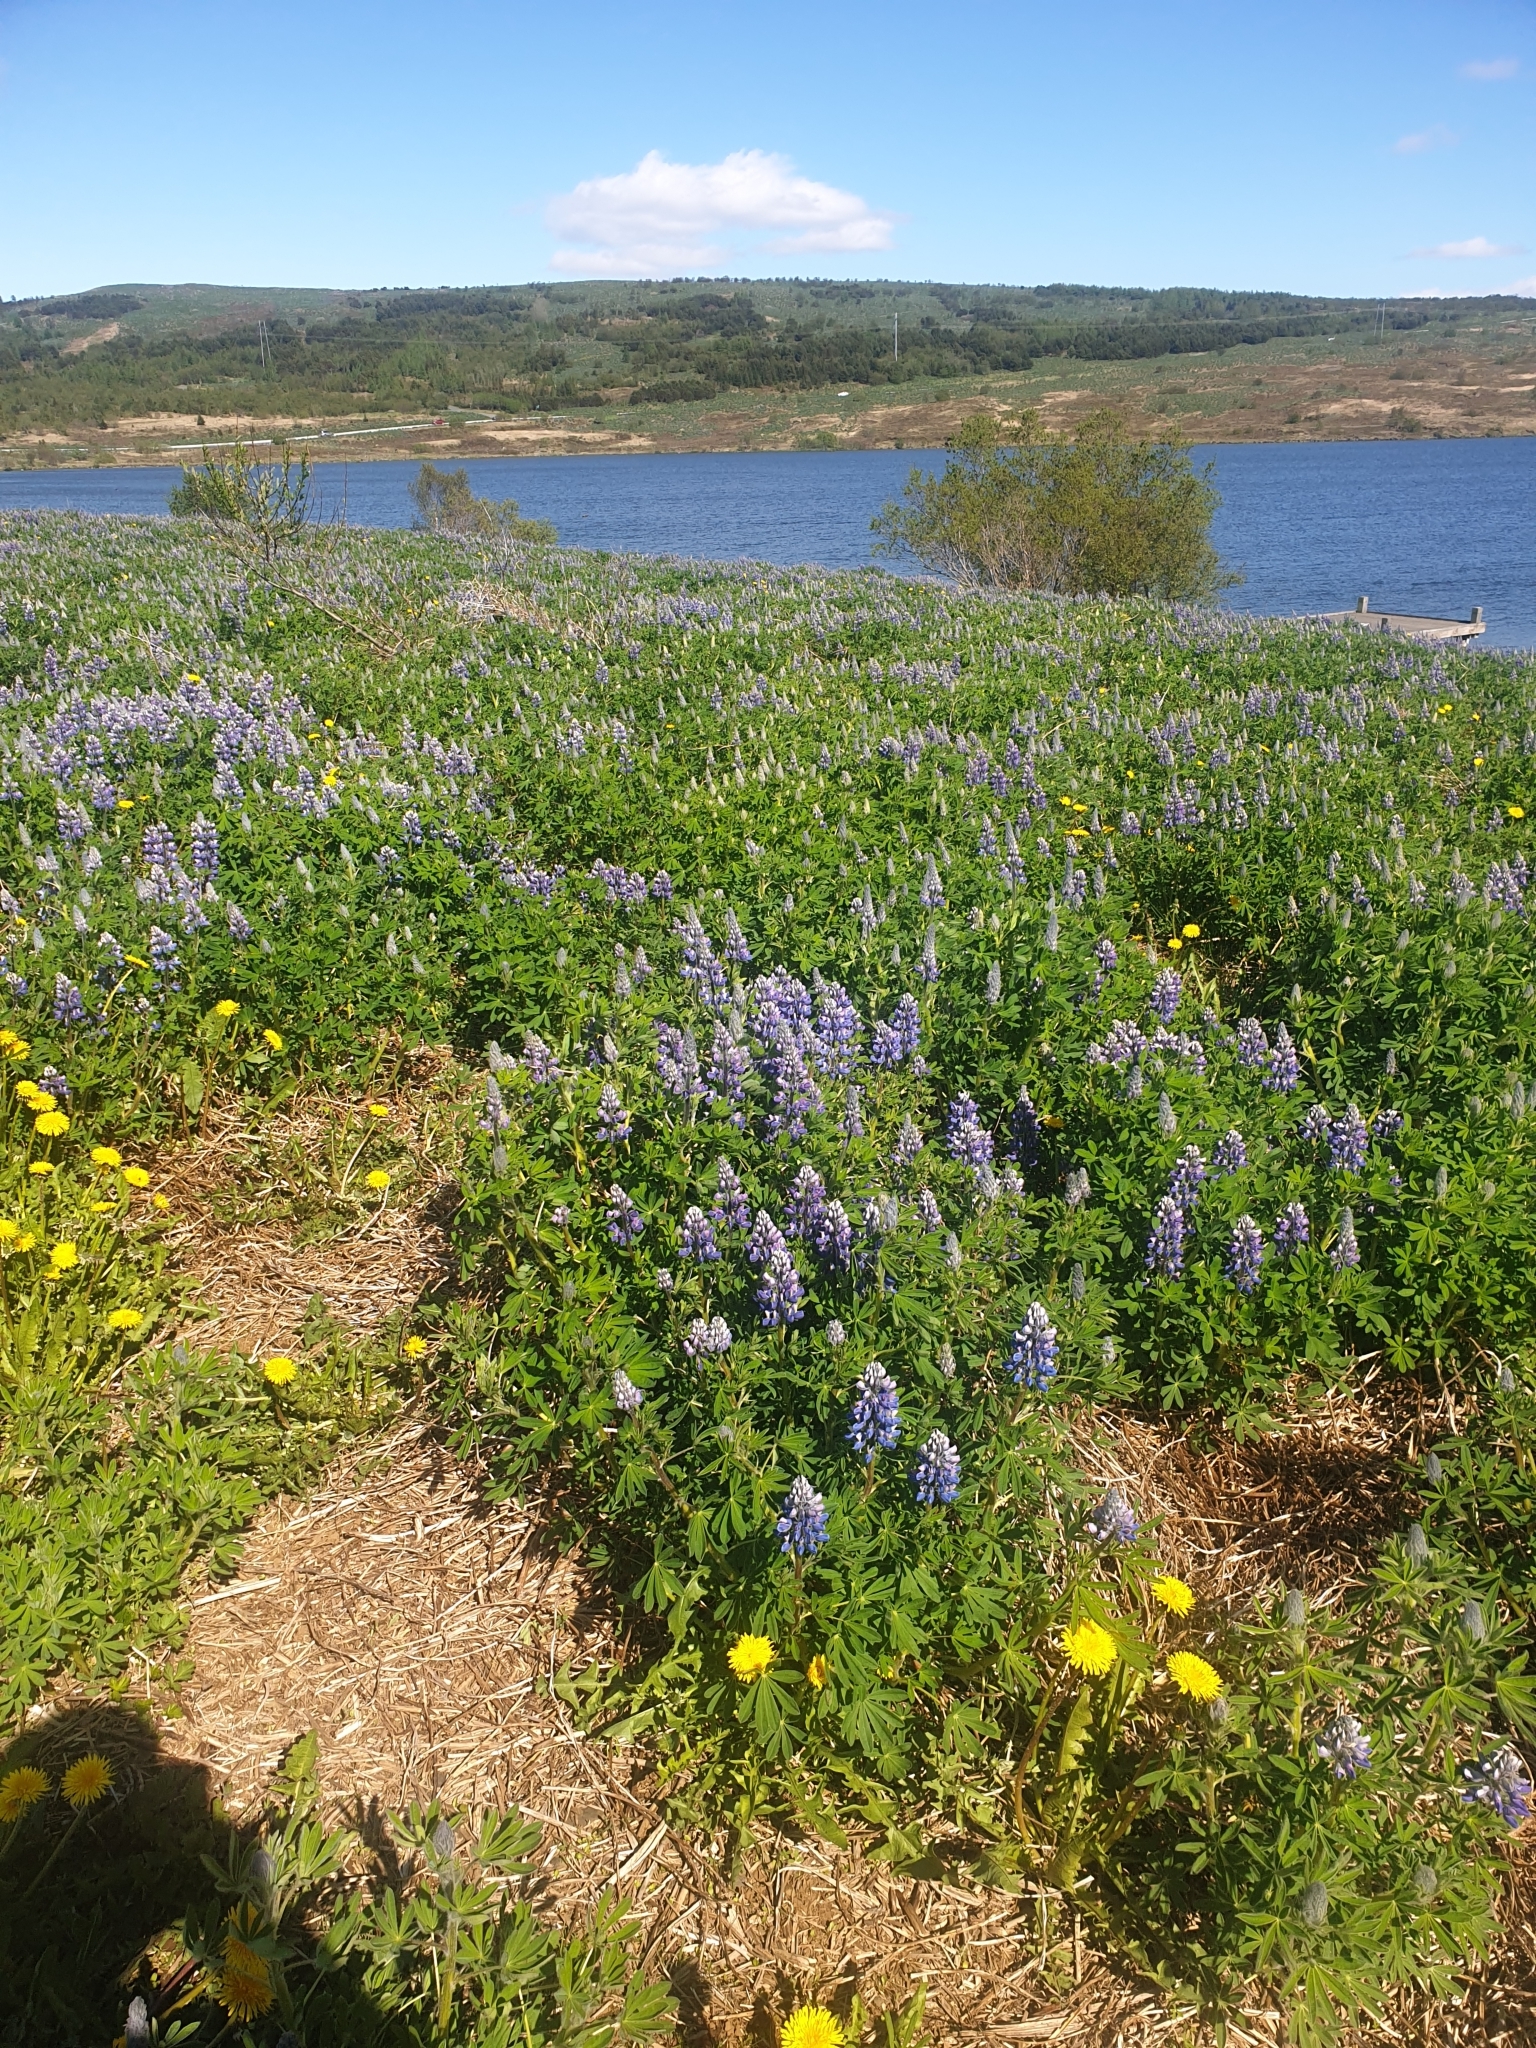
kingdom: Plantae
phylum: Tracheophyta
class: Magnoliopsida
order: Fabales
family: Fabaceae
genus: Lupinus
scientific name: Lupinus nootkatensis
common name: Nootka lupine
